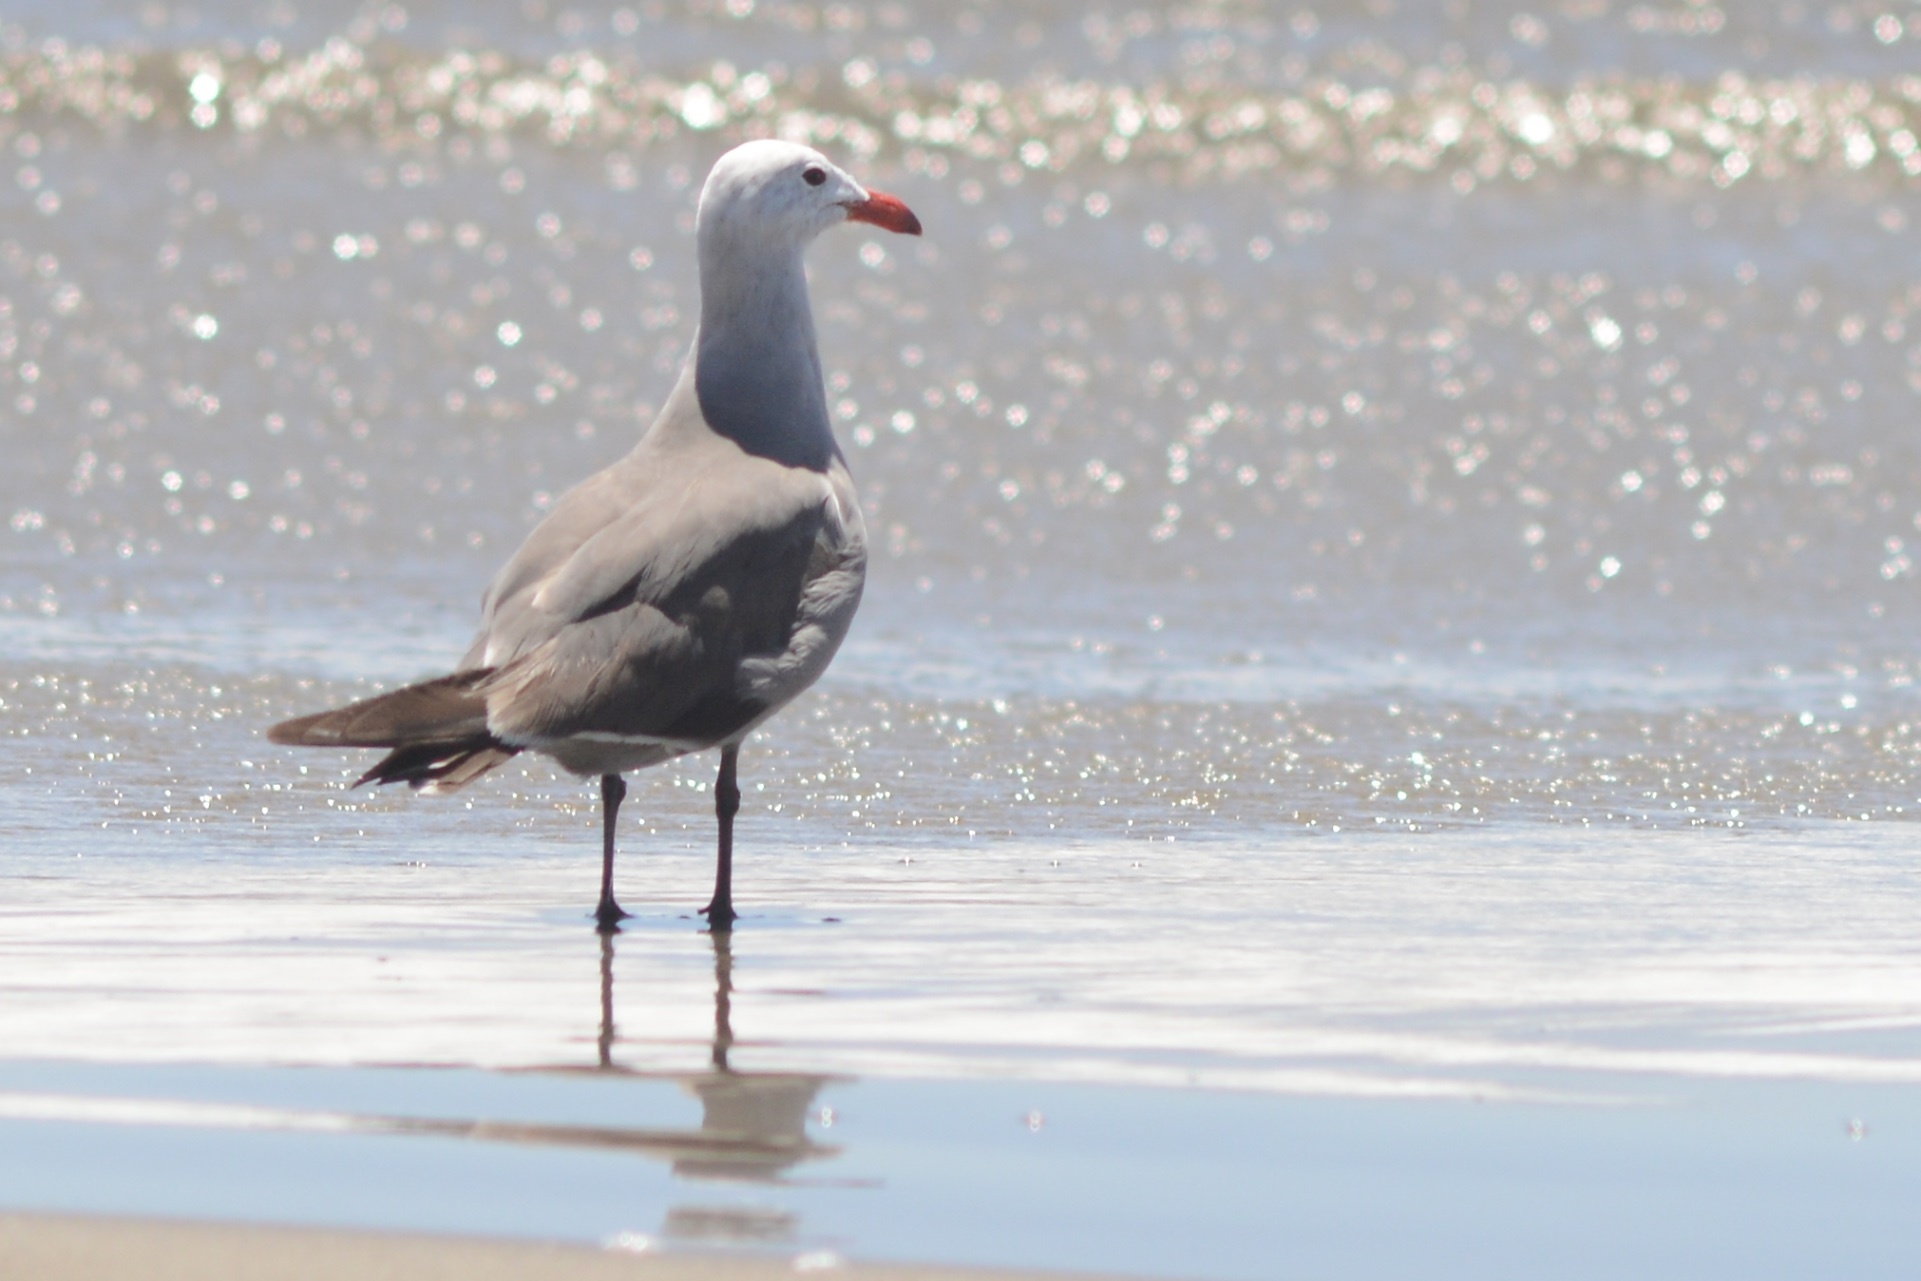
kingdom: Animalia
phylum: Chordata
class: Aves
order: Charadriiformes
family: Laridae
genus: Larus
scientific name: Larus heermanni
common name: Heermann's gull
